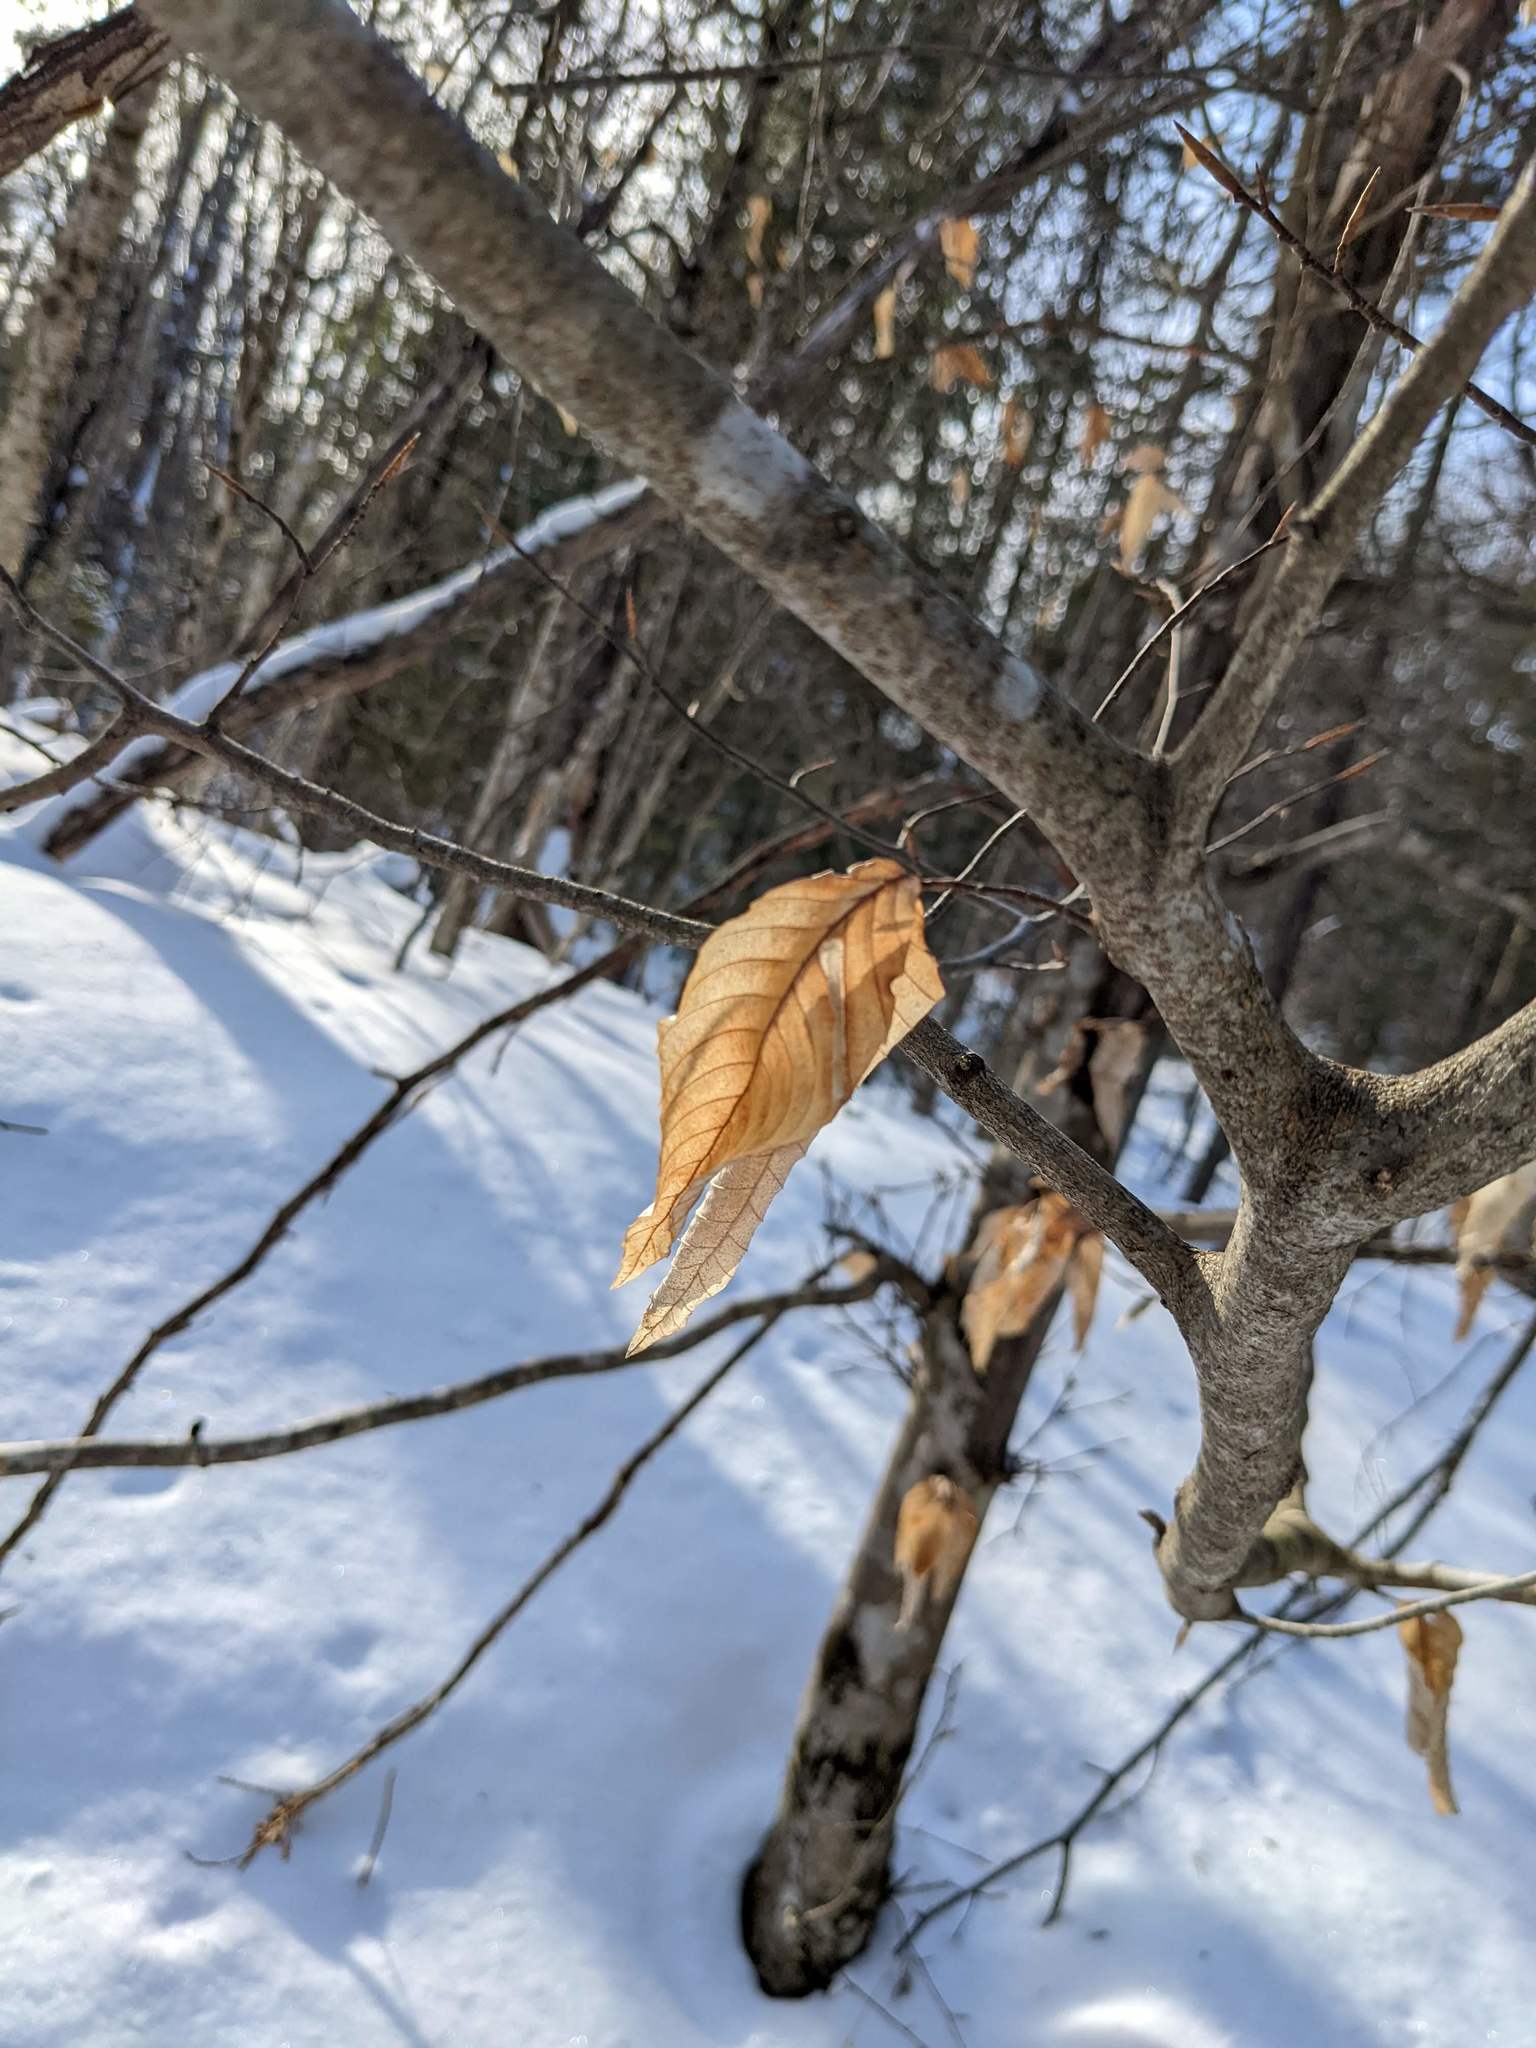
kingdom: Plantae
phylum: Tracheophyta
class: Magnoliopsida
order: Fagales
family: Fagaceae
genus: Fagus
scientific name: Fagus grandifolia
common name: American beech
